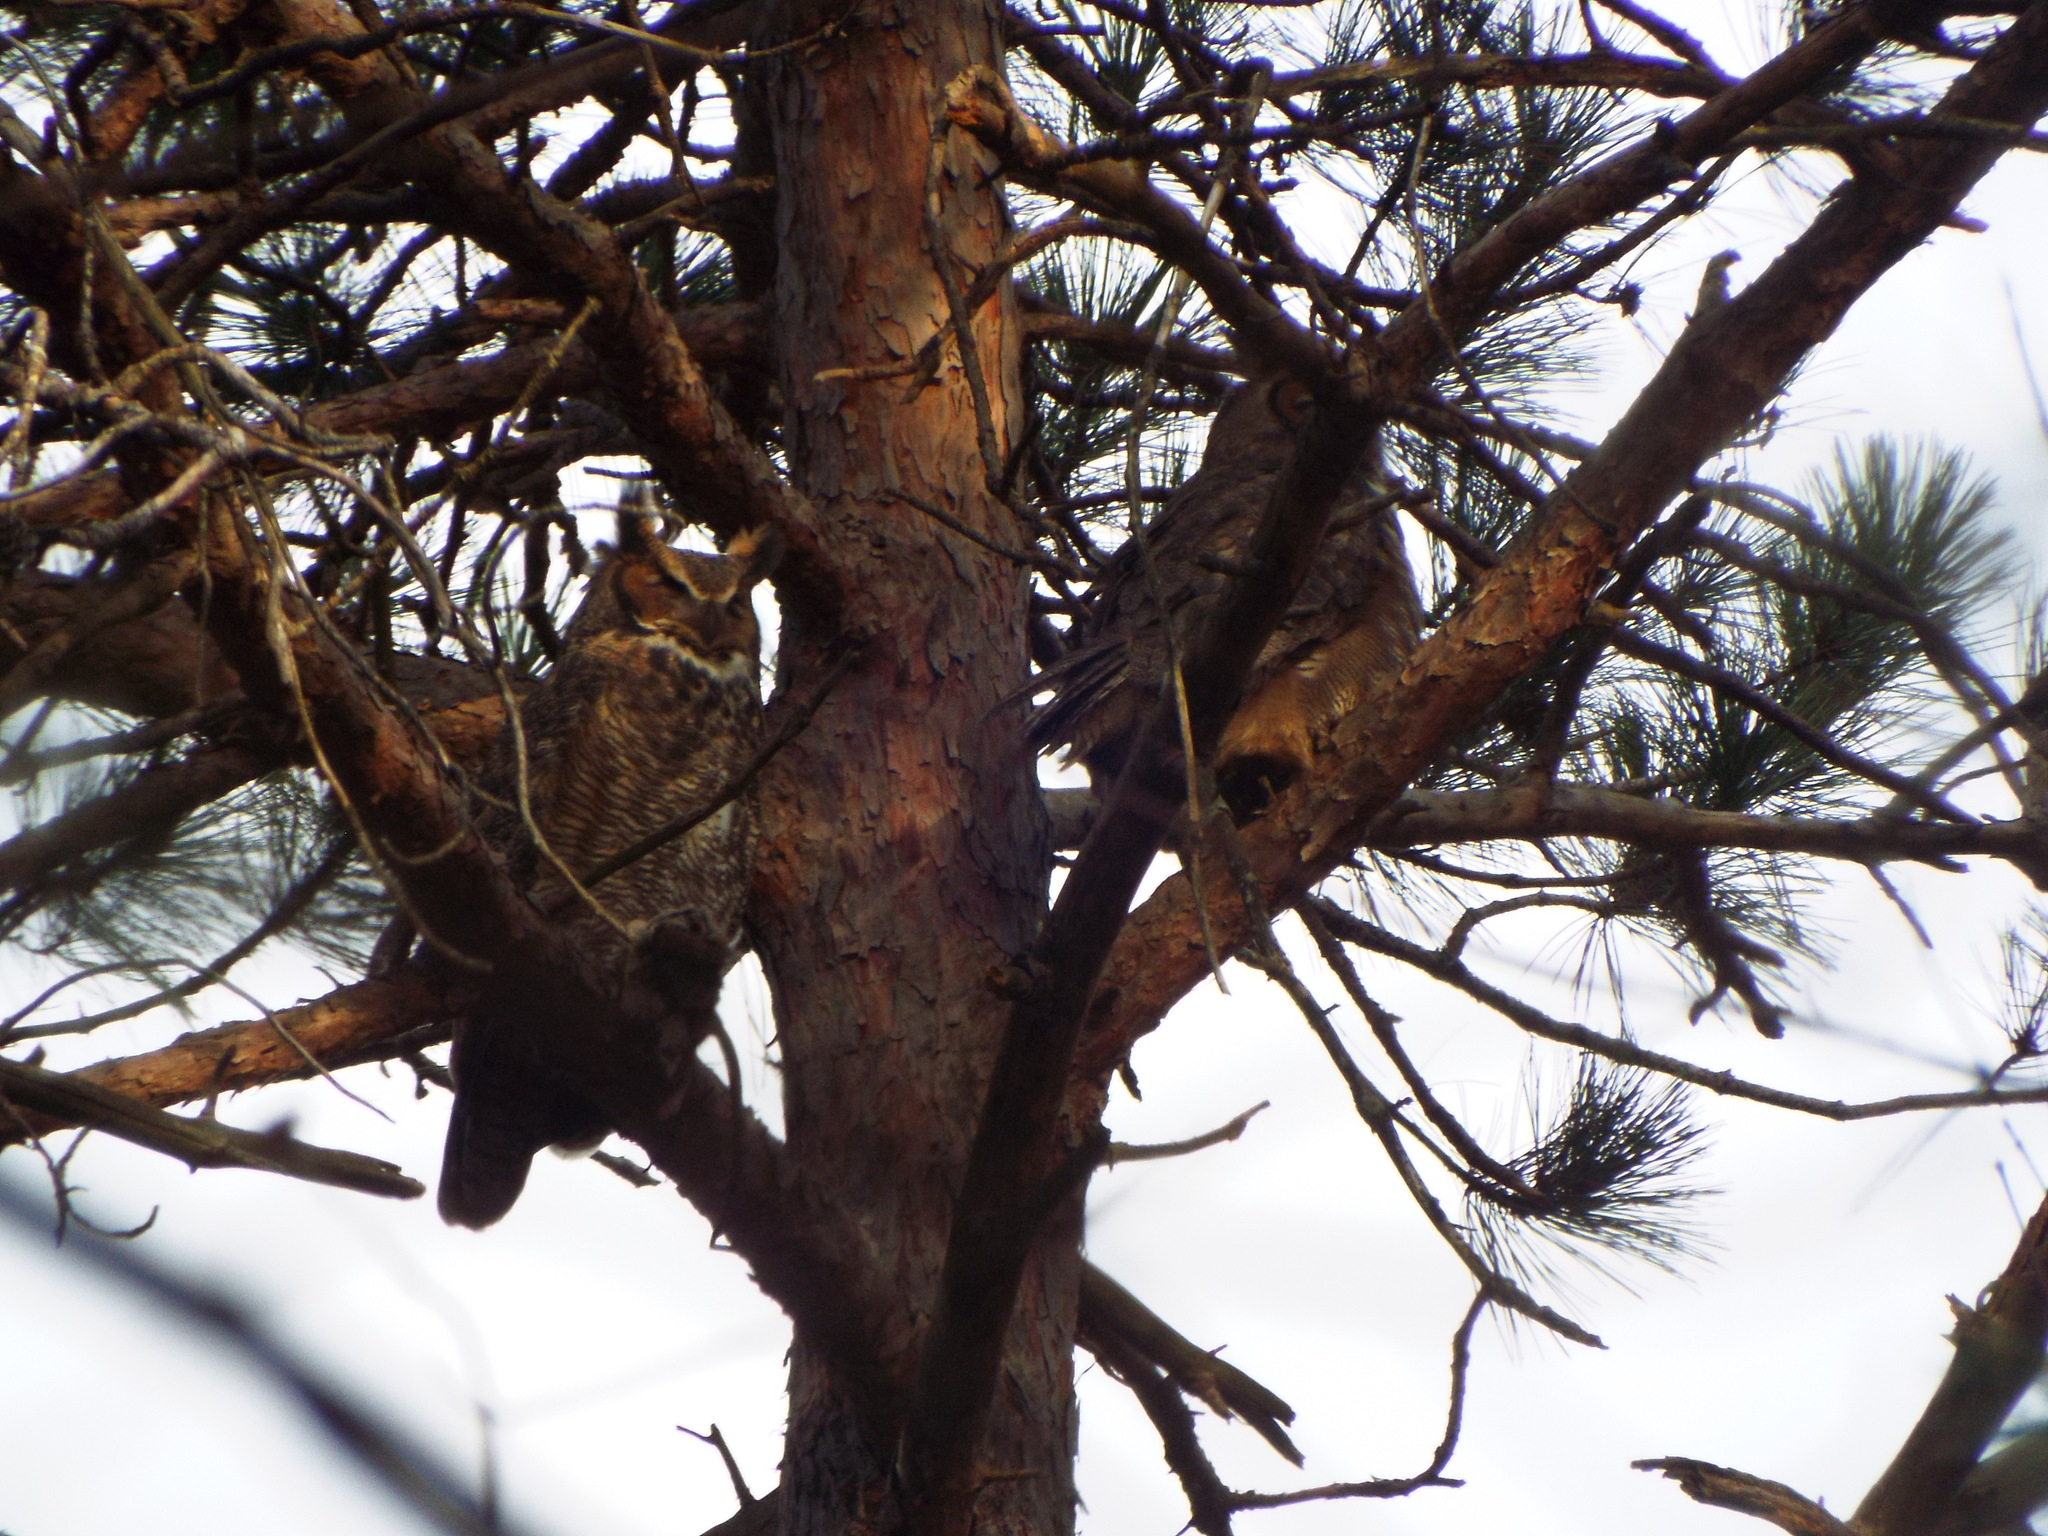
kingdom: Animalia
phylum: Chordata
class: Aves
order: Strigiformes
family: Strigidae
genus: Bubo
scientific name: Bubo virginianus
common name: Great horned owl
